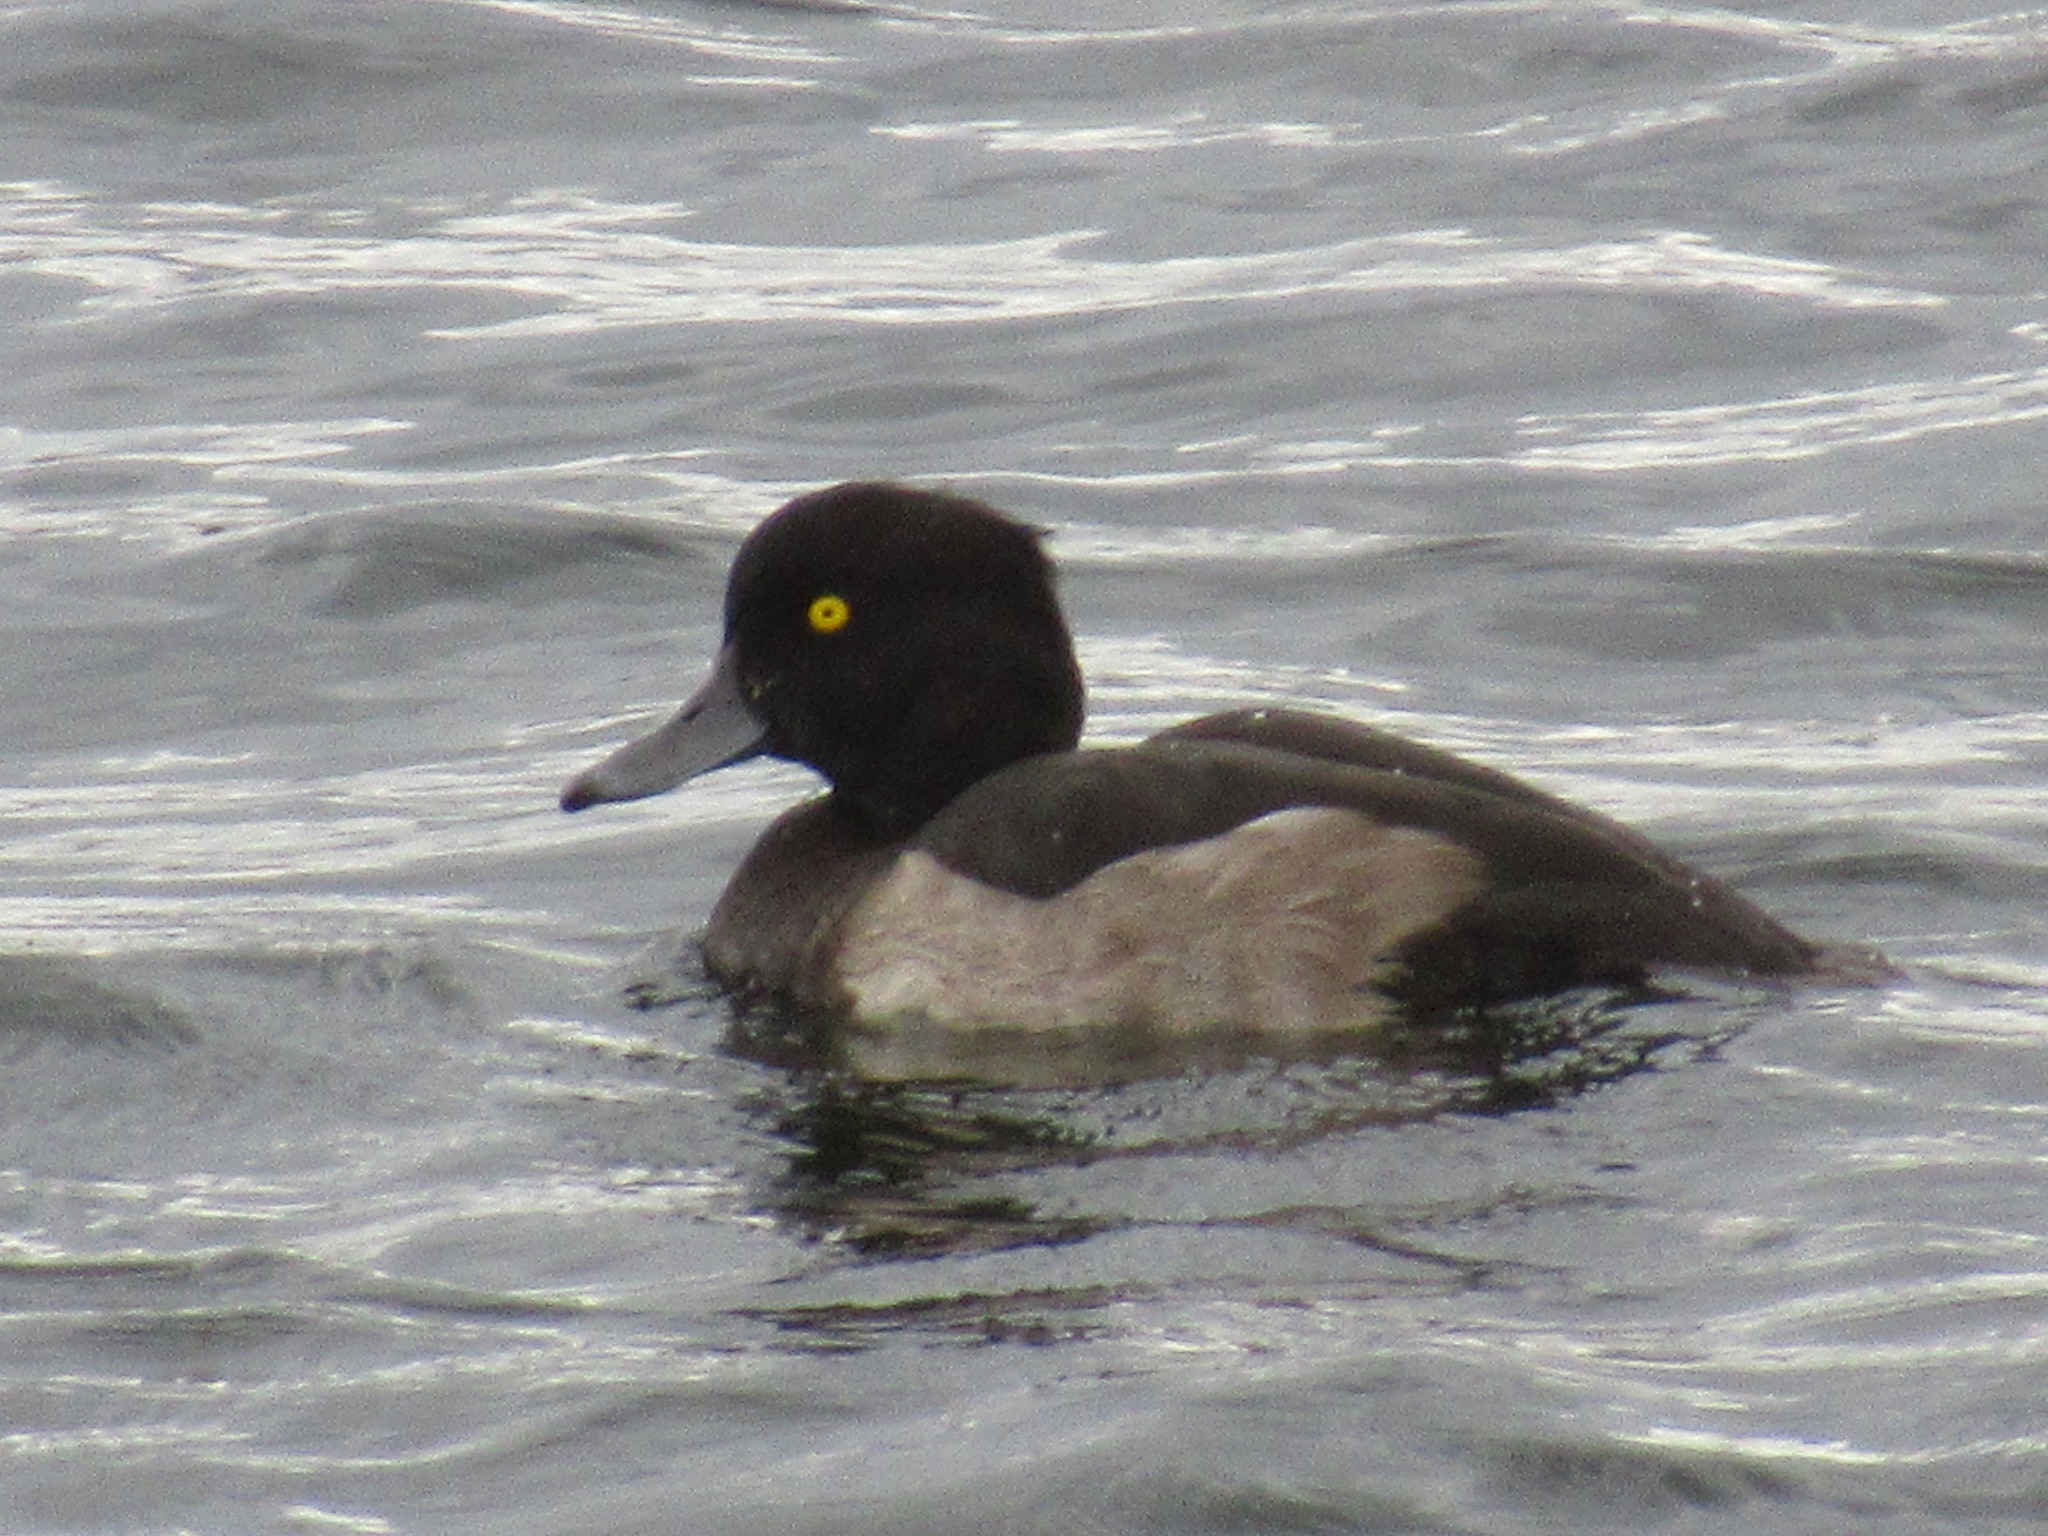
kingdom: Animalia
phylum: Chordata
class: Aves
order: Anseriformes
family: Anatidae
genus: Aythya
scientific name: Aythya fuligula
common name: Tufted duck
